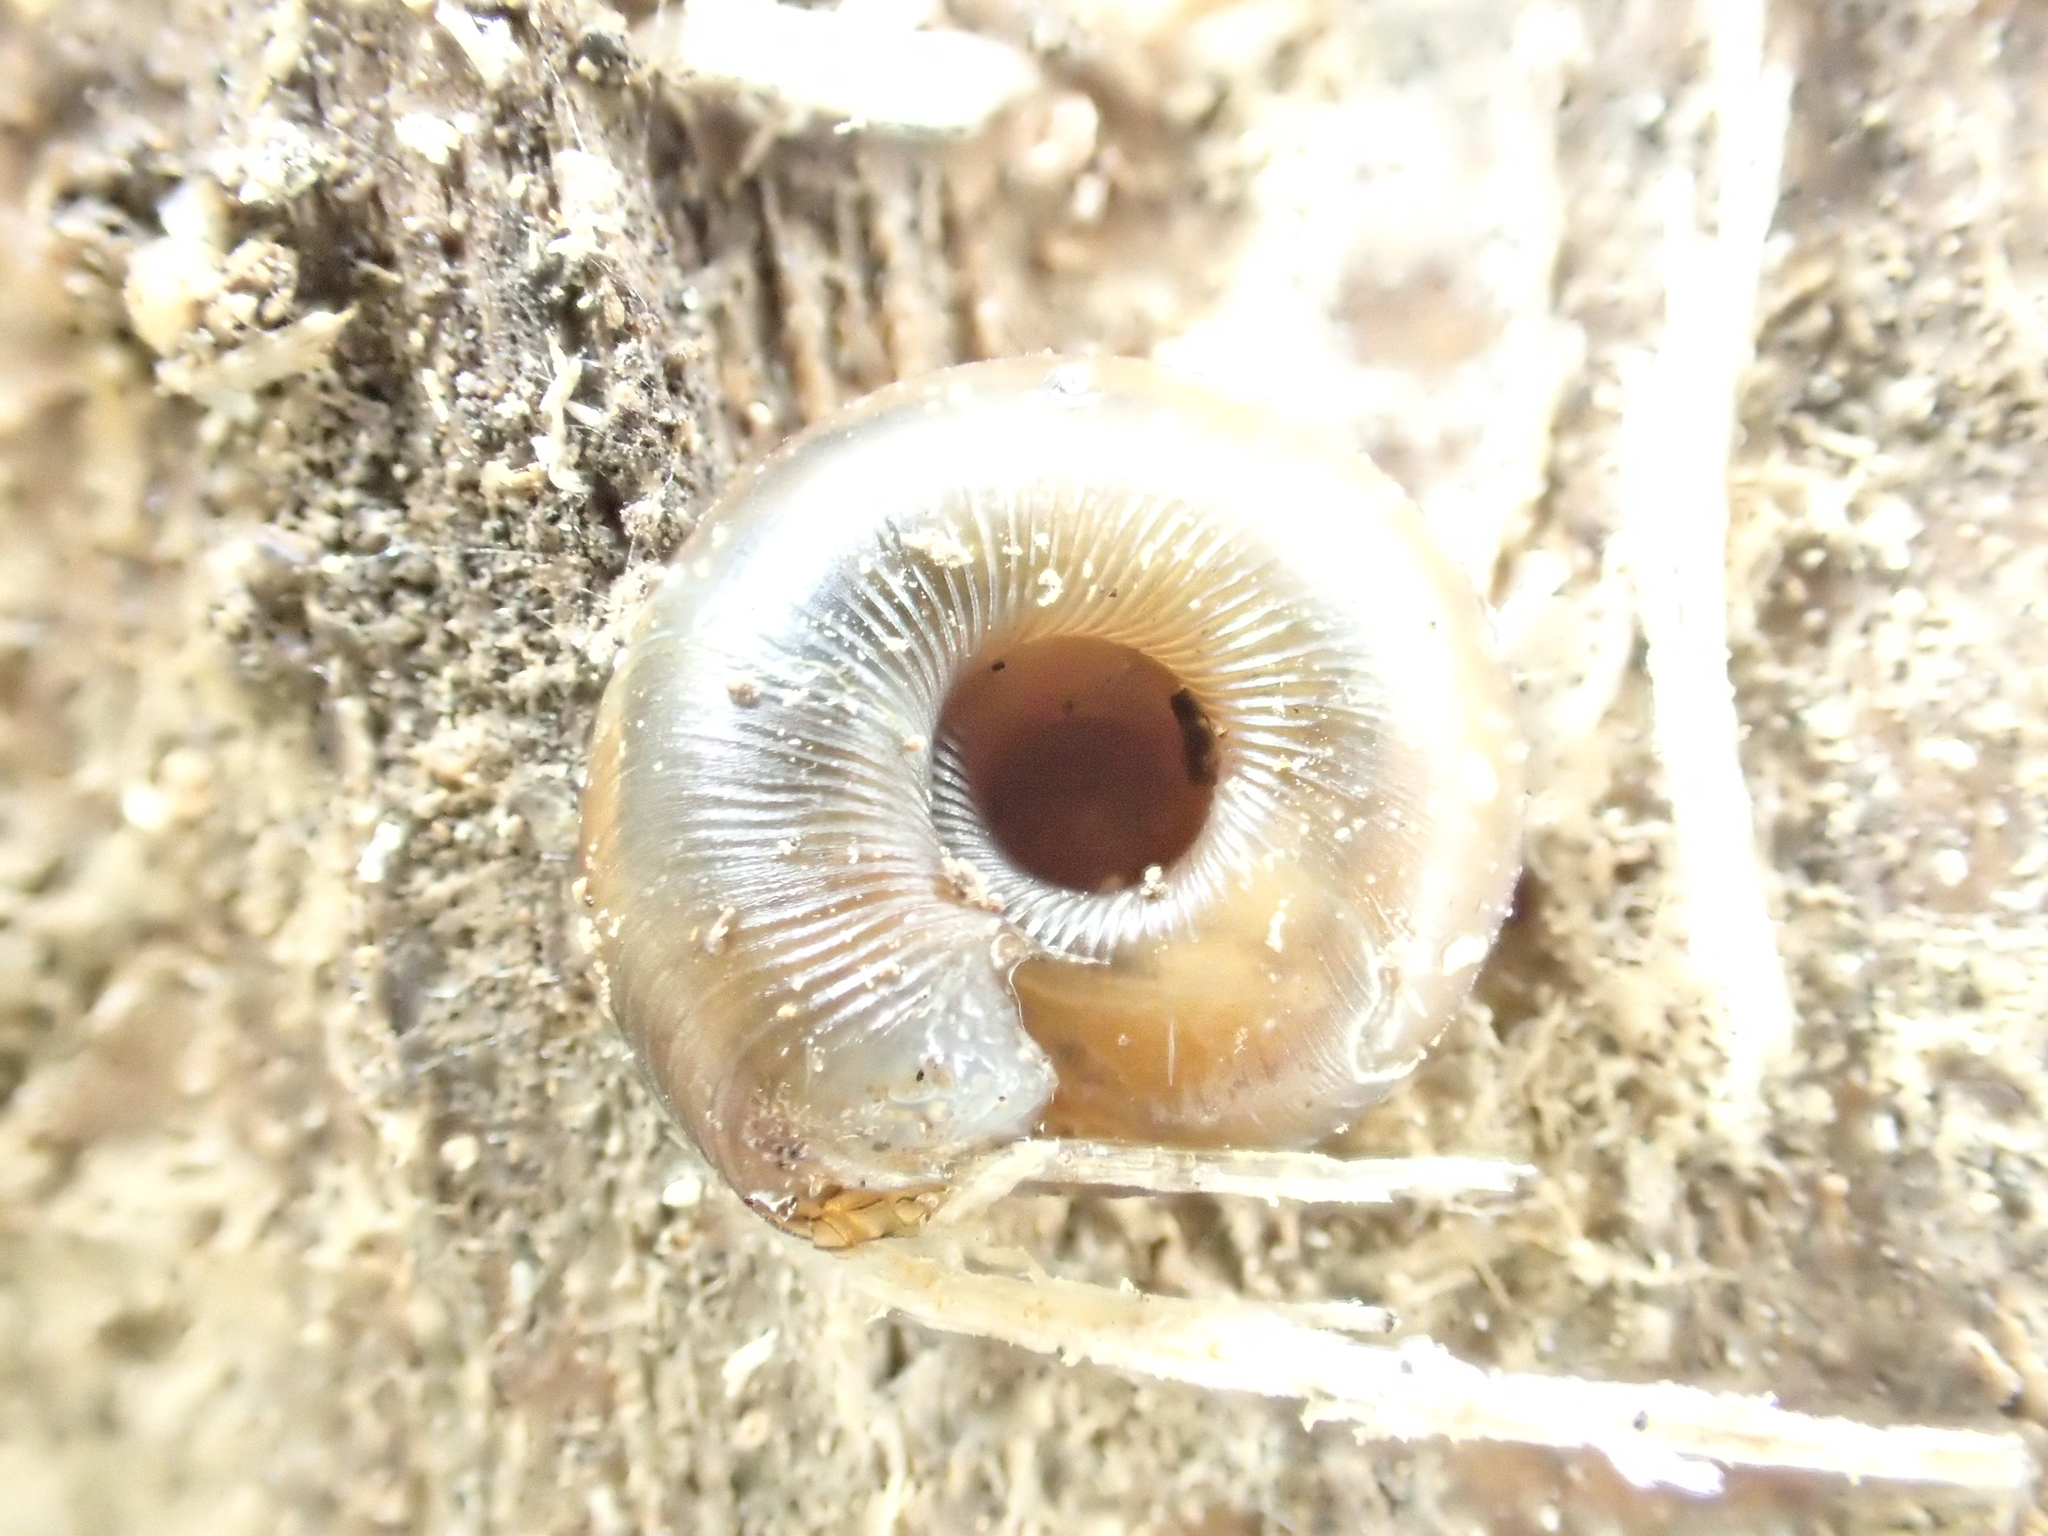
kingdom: Animalia
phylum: Mollusca
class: Gastropoda
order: Stylommatophora
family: Discidae
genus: Discus
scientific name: Discus rotundatus
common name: Rounded snail
